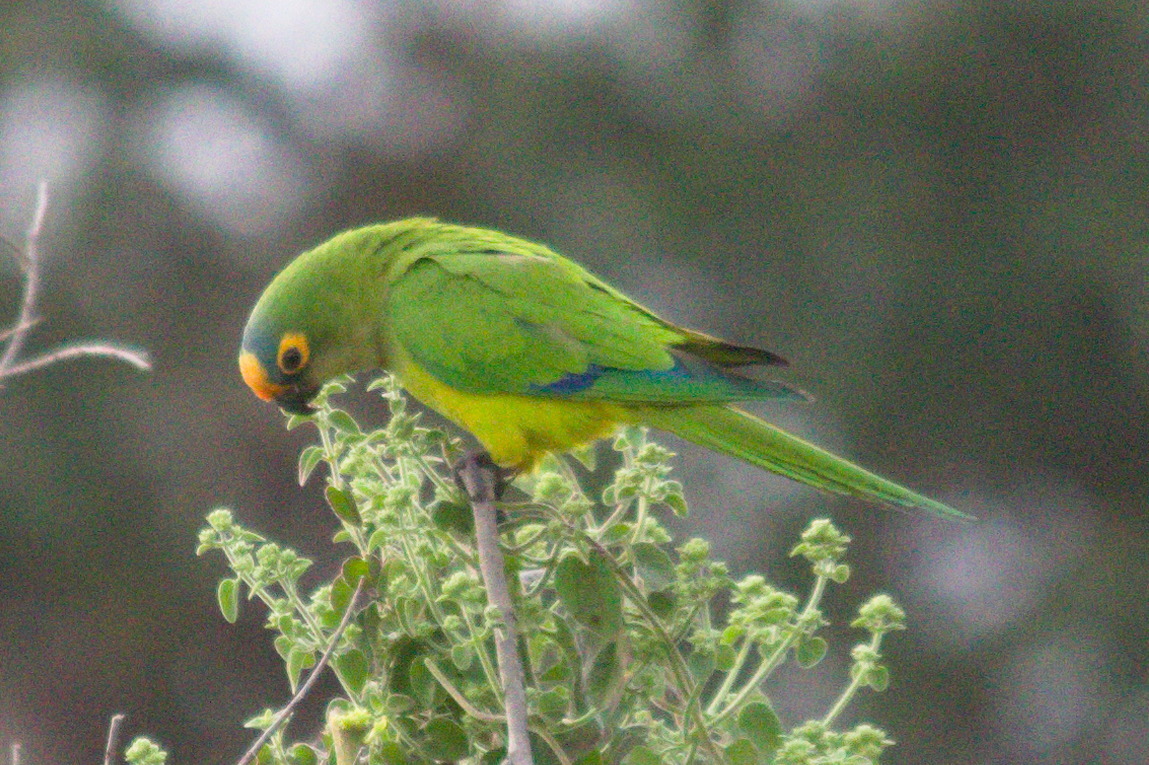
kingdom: Animalia
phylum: Chordata
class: Aves
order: Psittaciformes
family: Psittacidae
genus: Aratinga
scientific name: Aratinga aurea
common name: Peach-fronted parakeet
